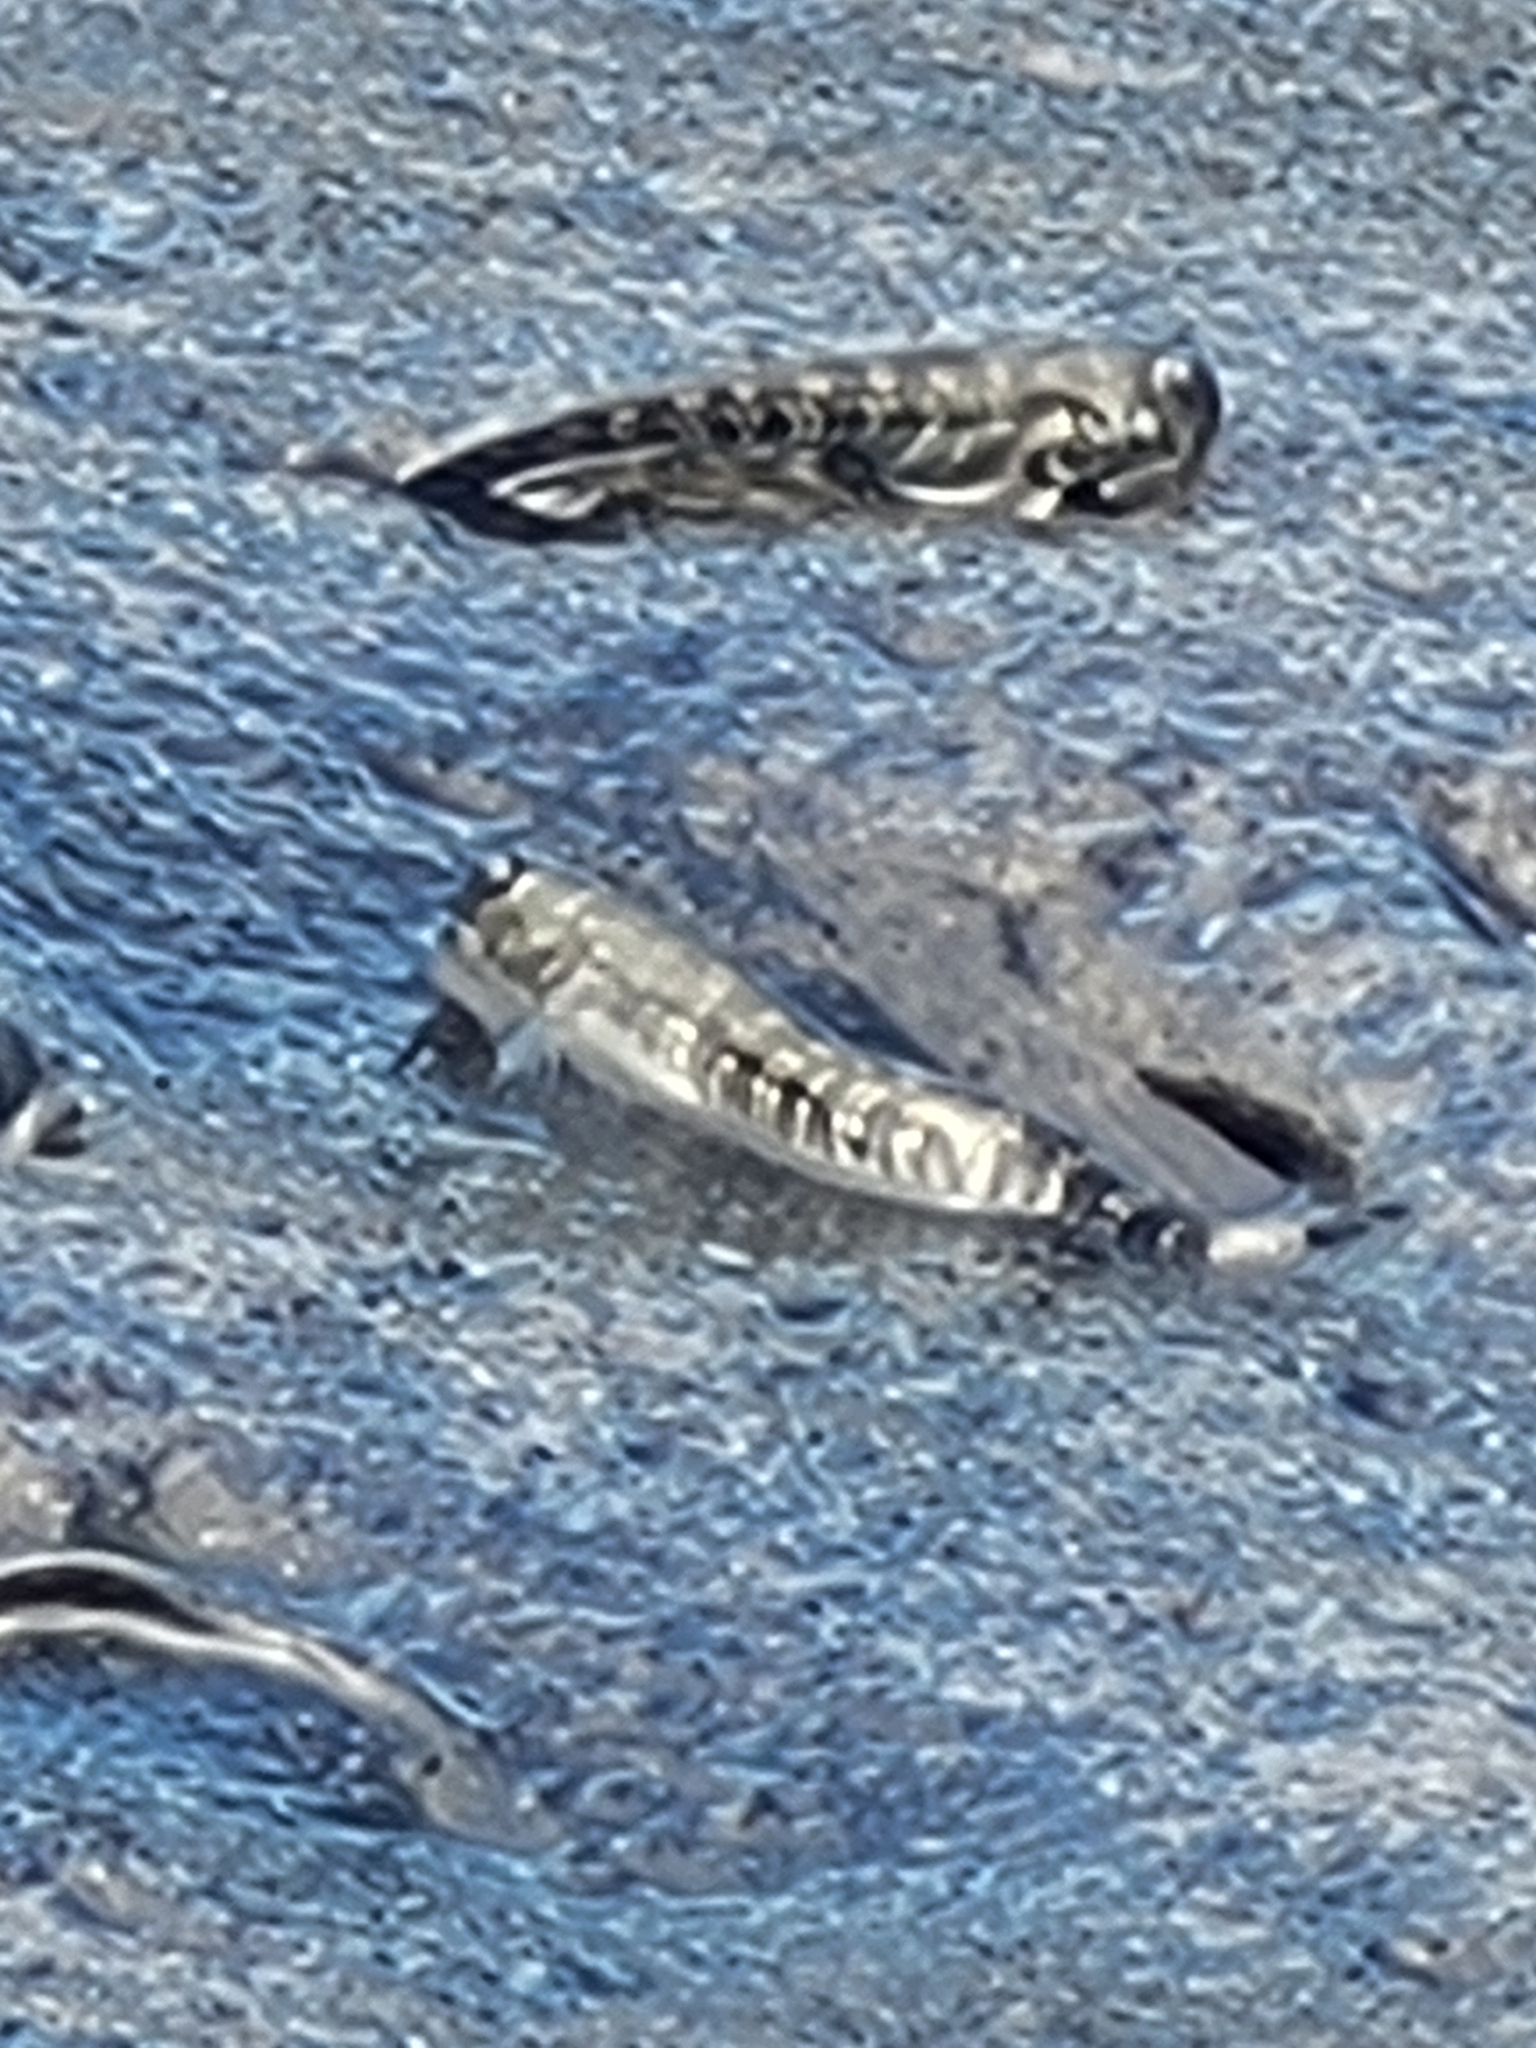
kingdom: Animalia
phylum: Chordata
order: Perciformes
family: Blenniidae
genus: Alticus
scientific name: Alticus monochrus
